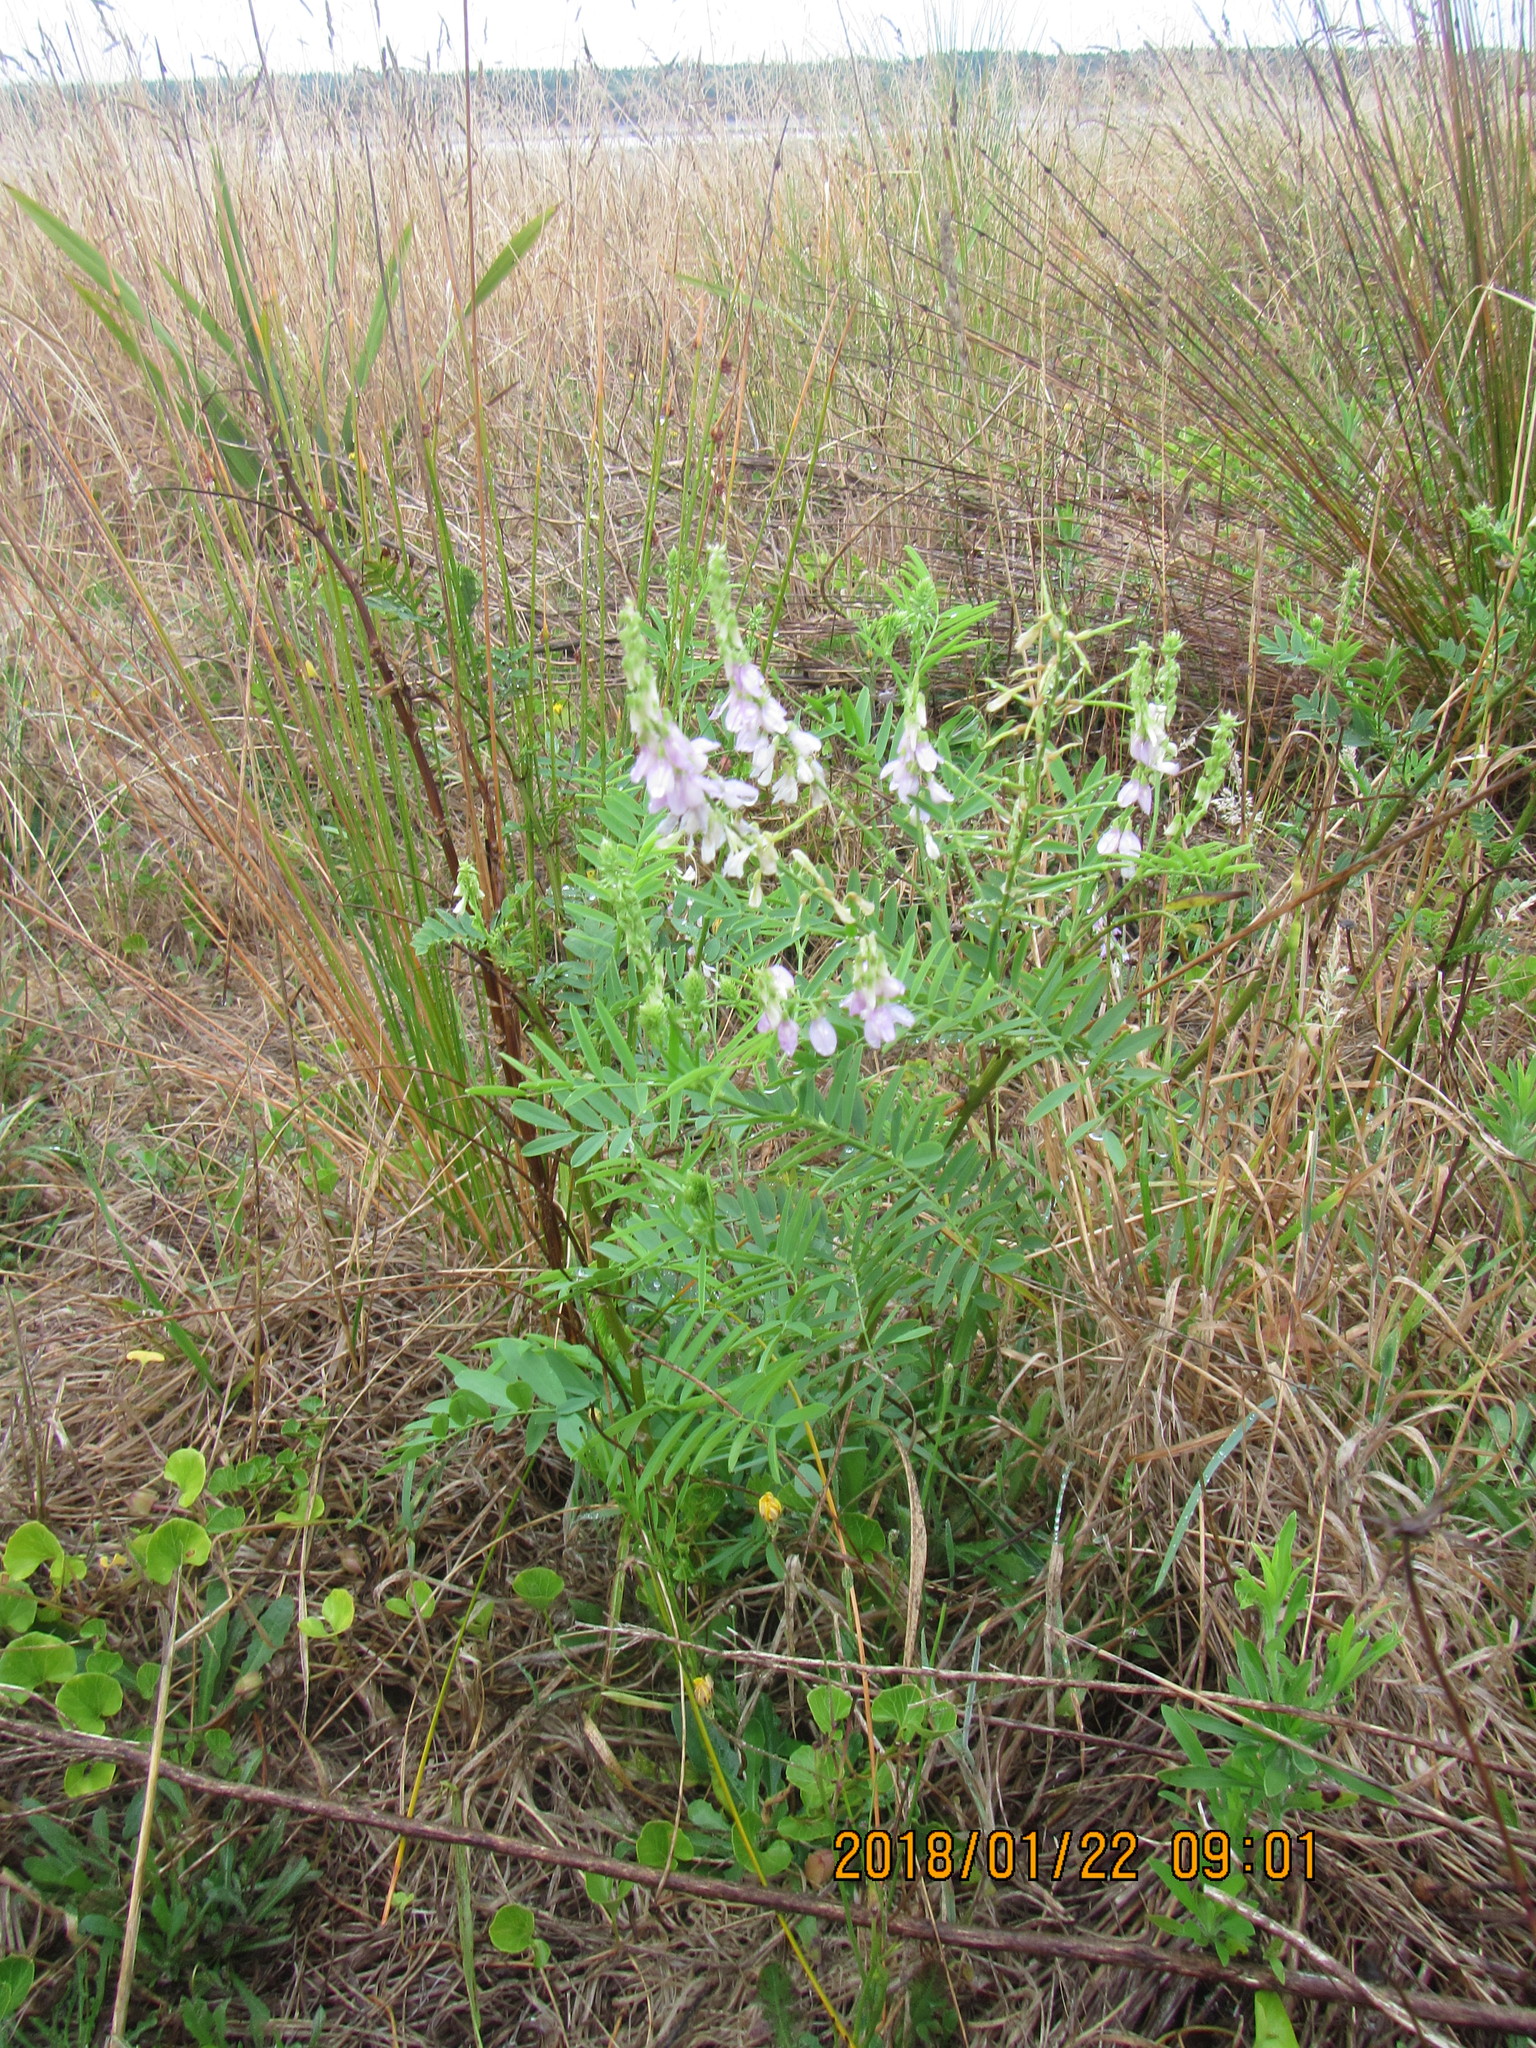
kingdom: Plantae
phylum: Tracheophyta
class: Magnoliopsida
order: Fabales
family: Fabaceae
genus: Galega
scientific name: Galega officinalis
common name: Goat's-rue
